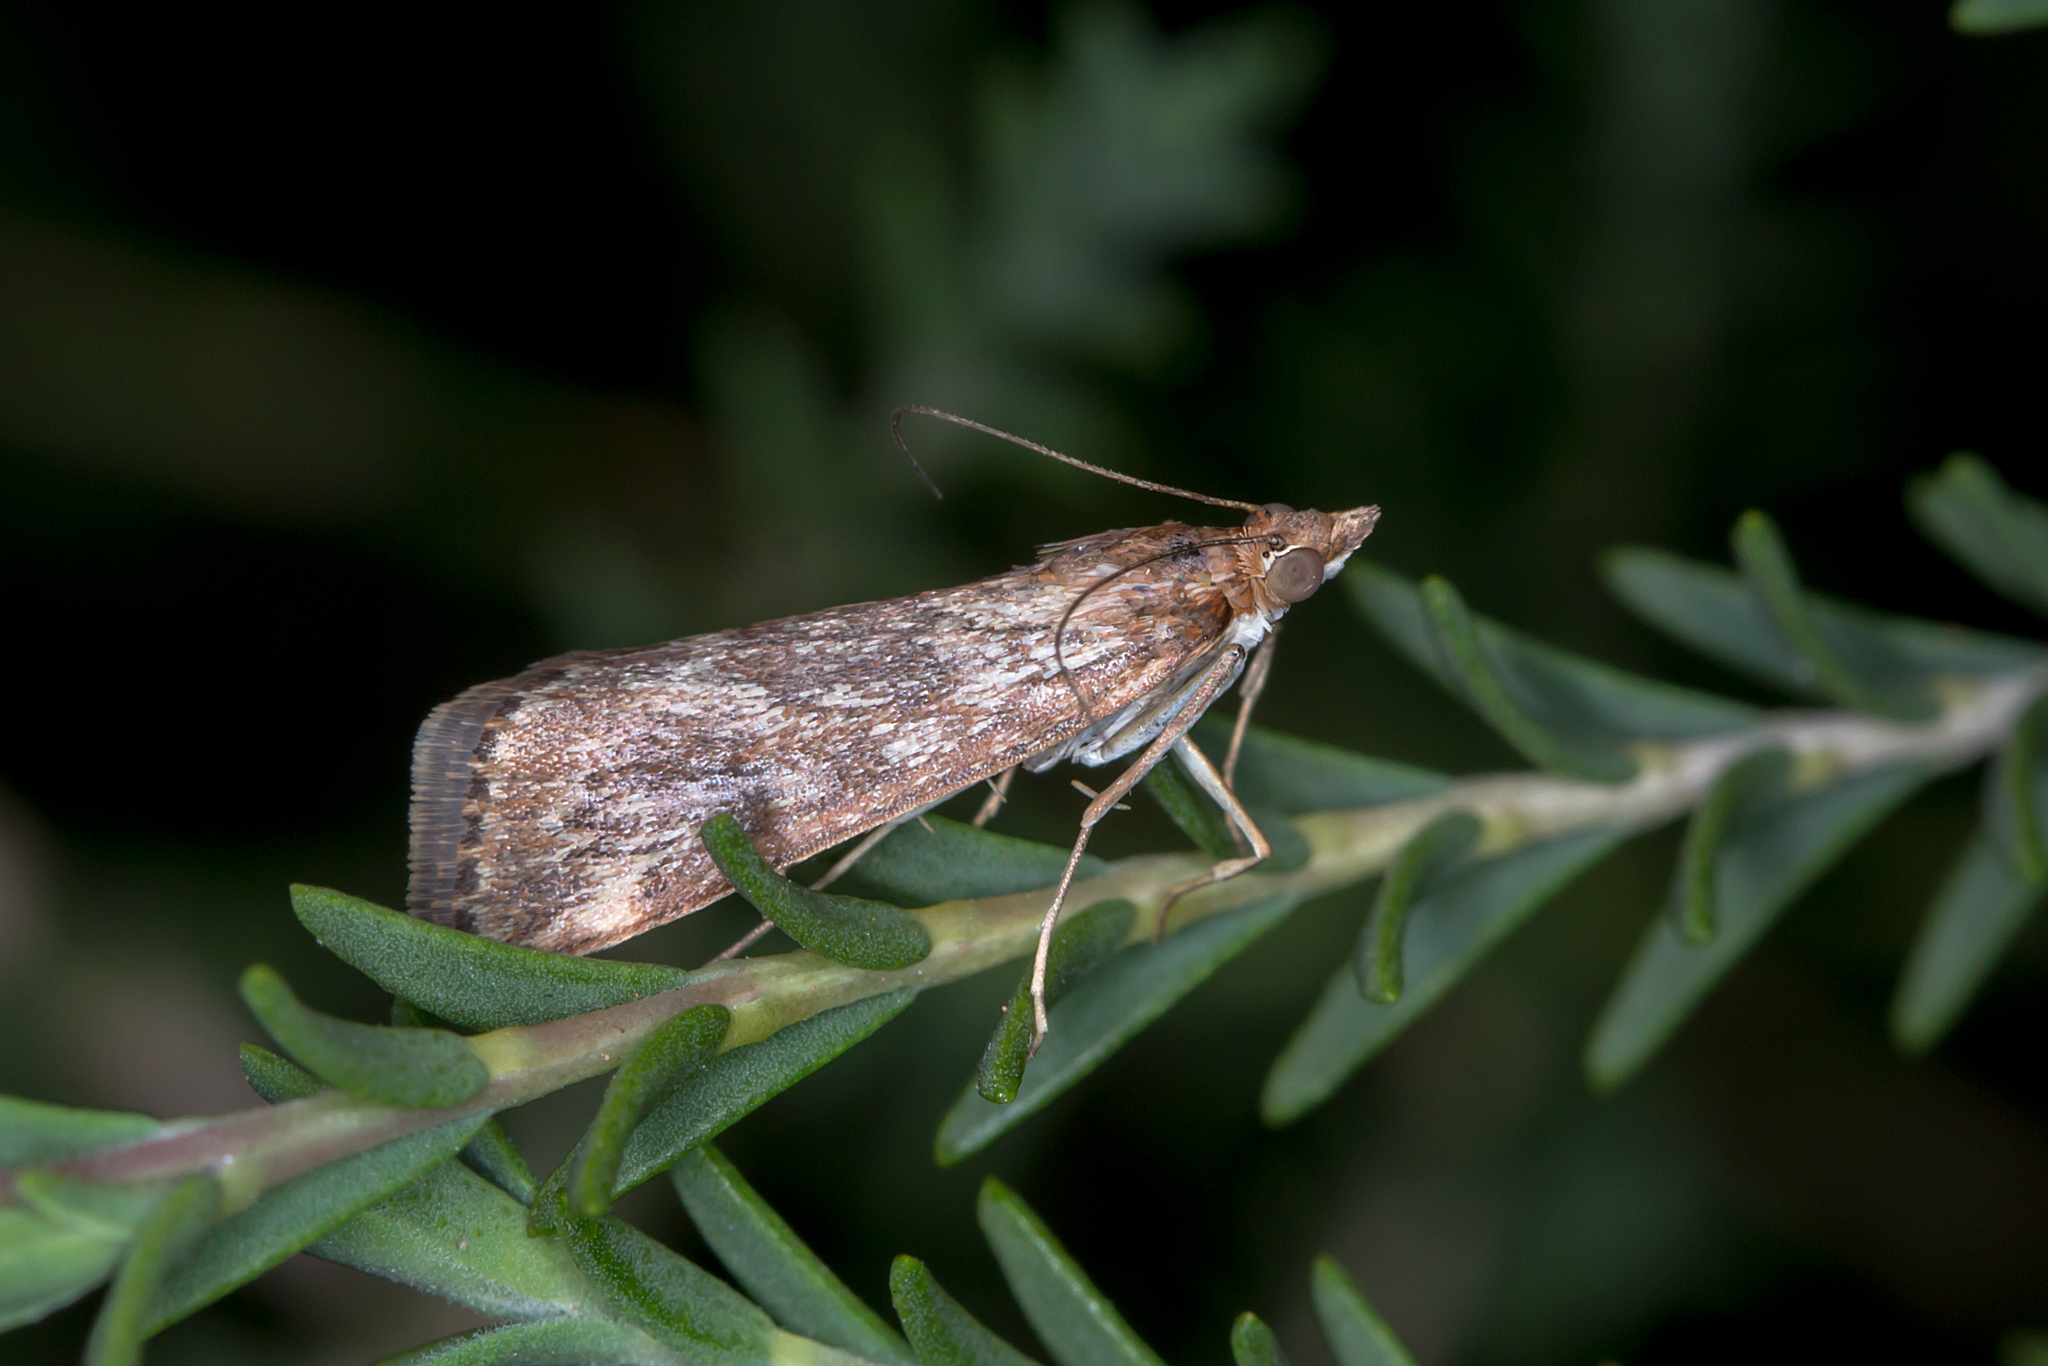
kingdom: Animalia
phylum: Arthropoda
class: Insecta
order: Lepidoptera
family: Crambidae
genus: Achyra
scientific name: Achyra affinitalis
